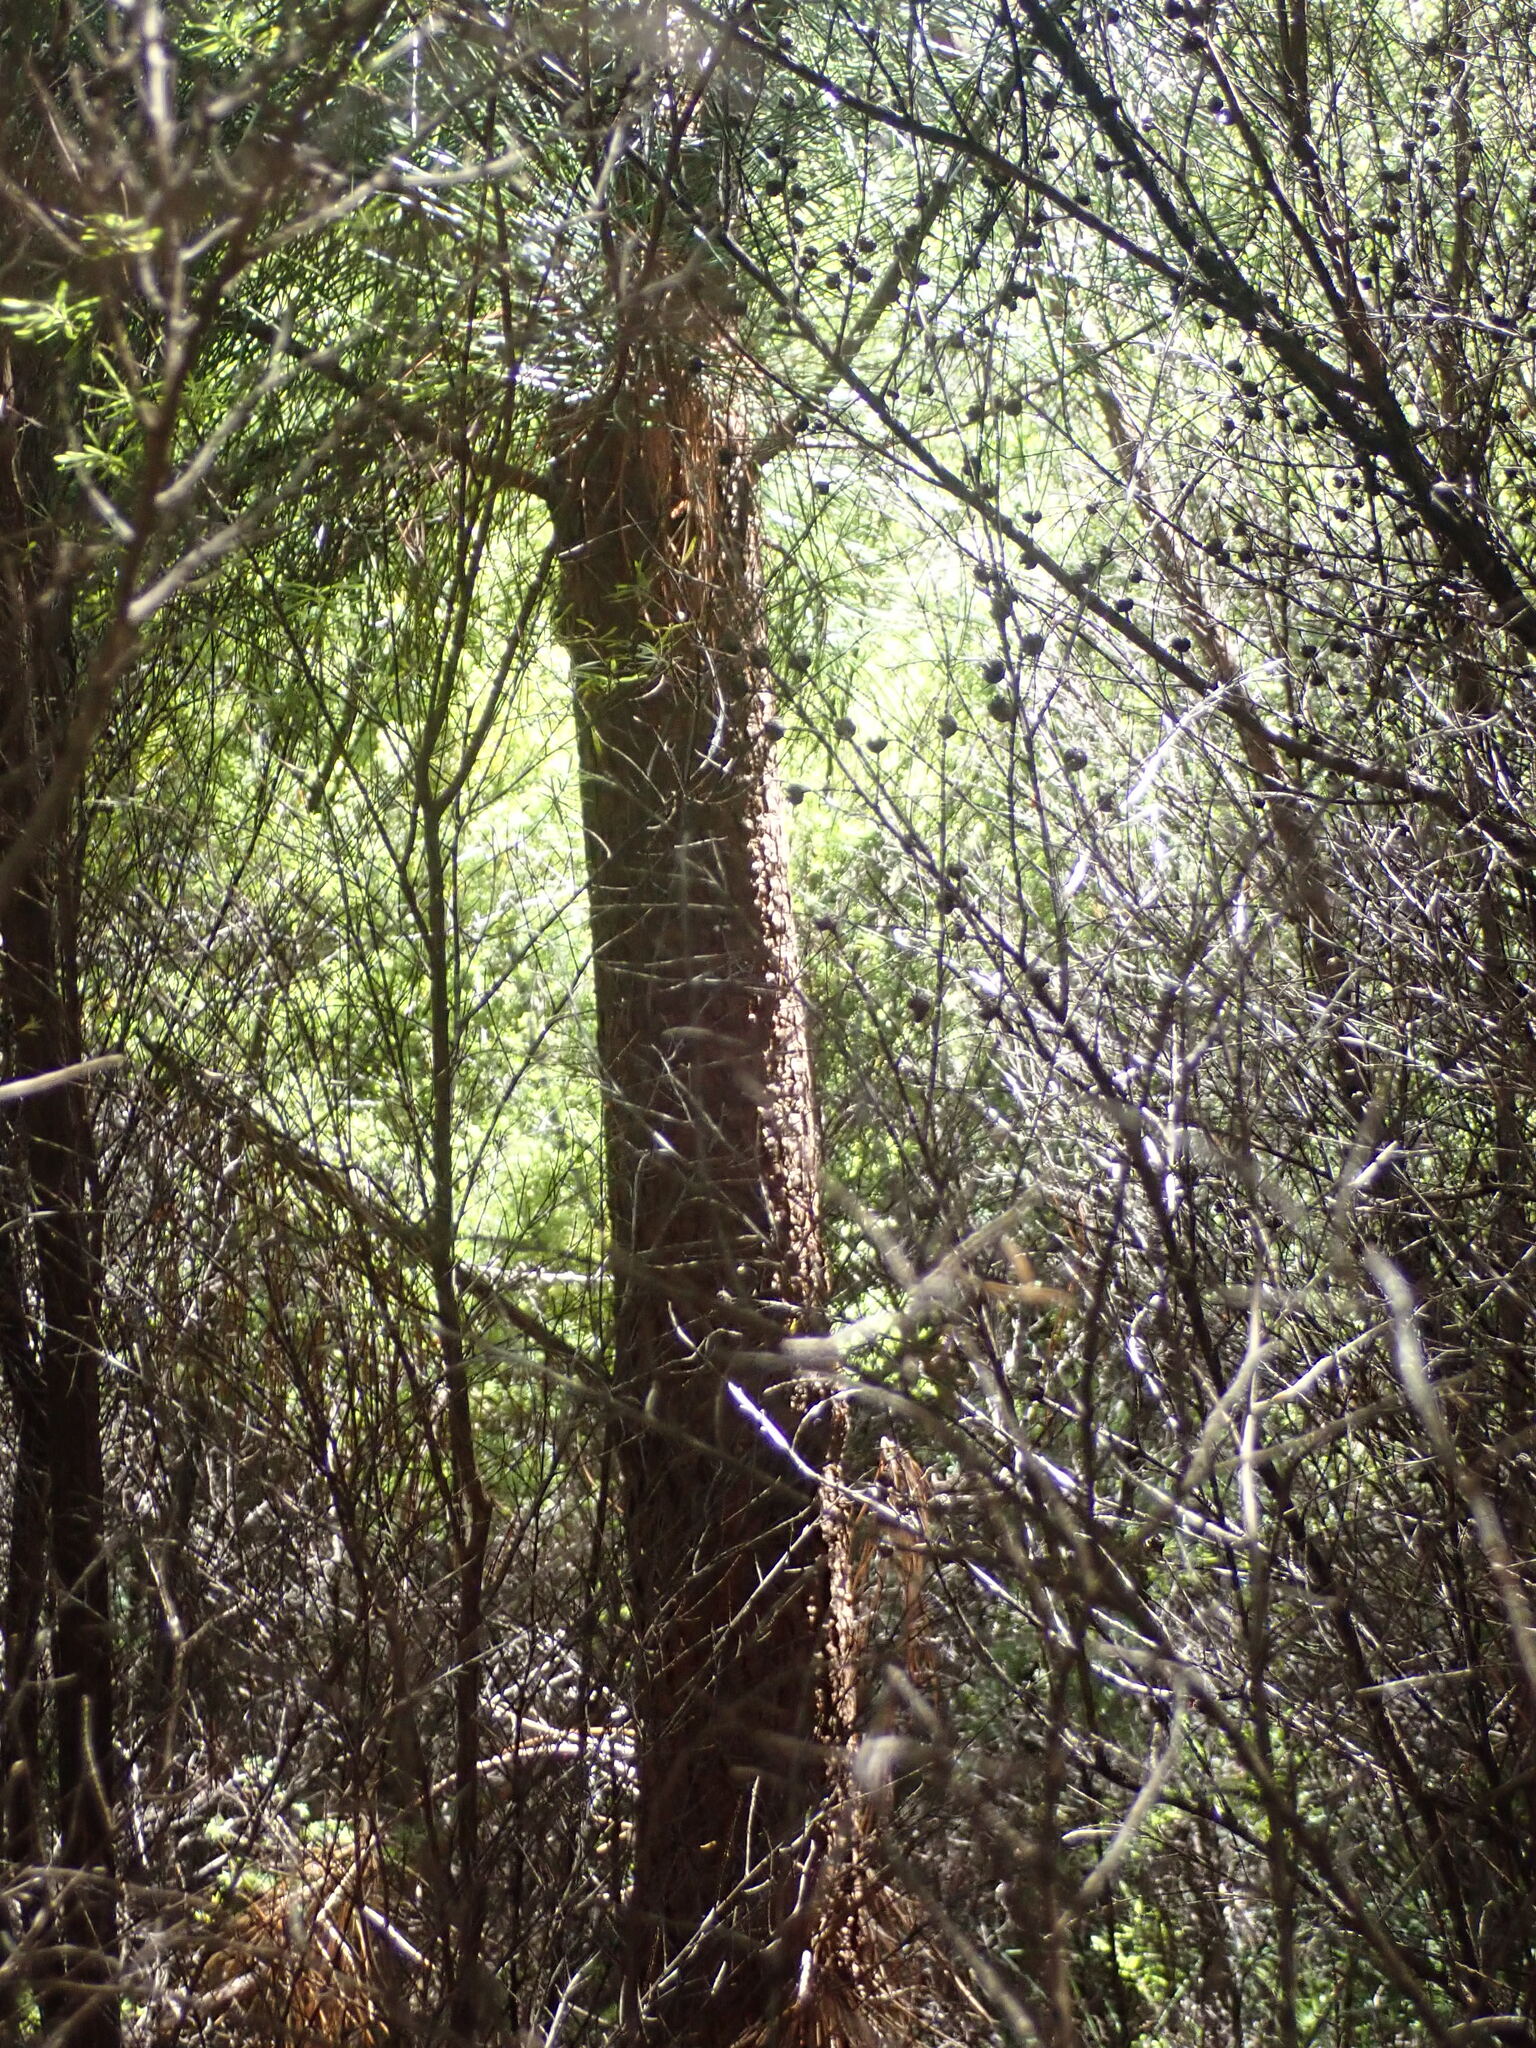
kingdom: Plantae
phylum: Tracheophyta
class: Pinopsida
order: Pinales
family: Pinaceae
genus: Pinus
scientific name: Pinus pinaster
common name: Maritime pine
